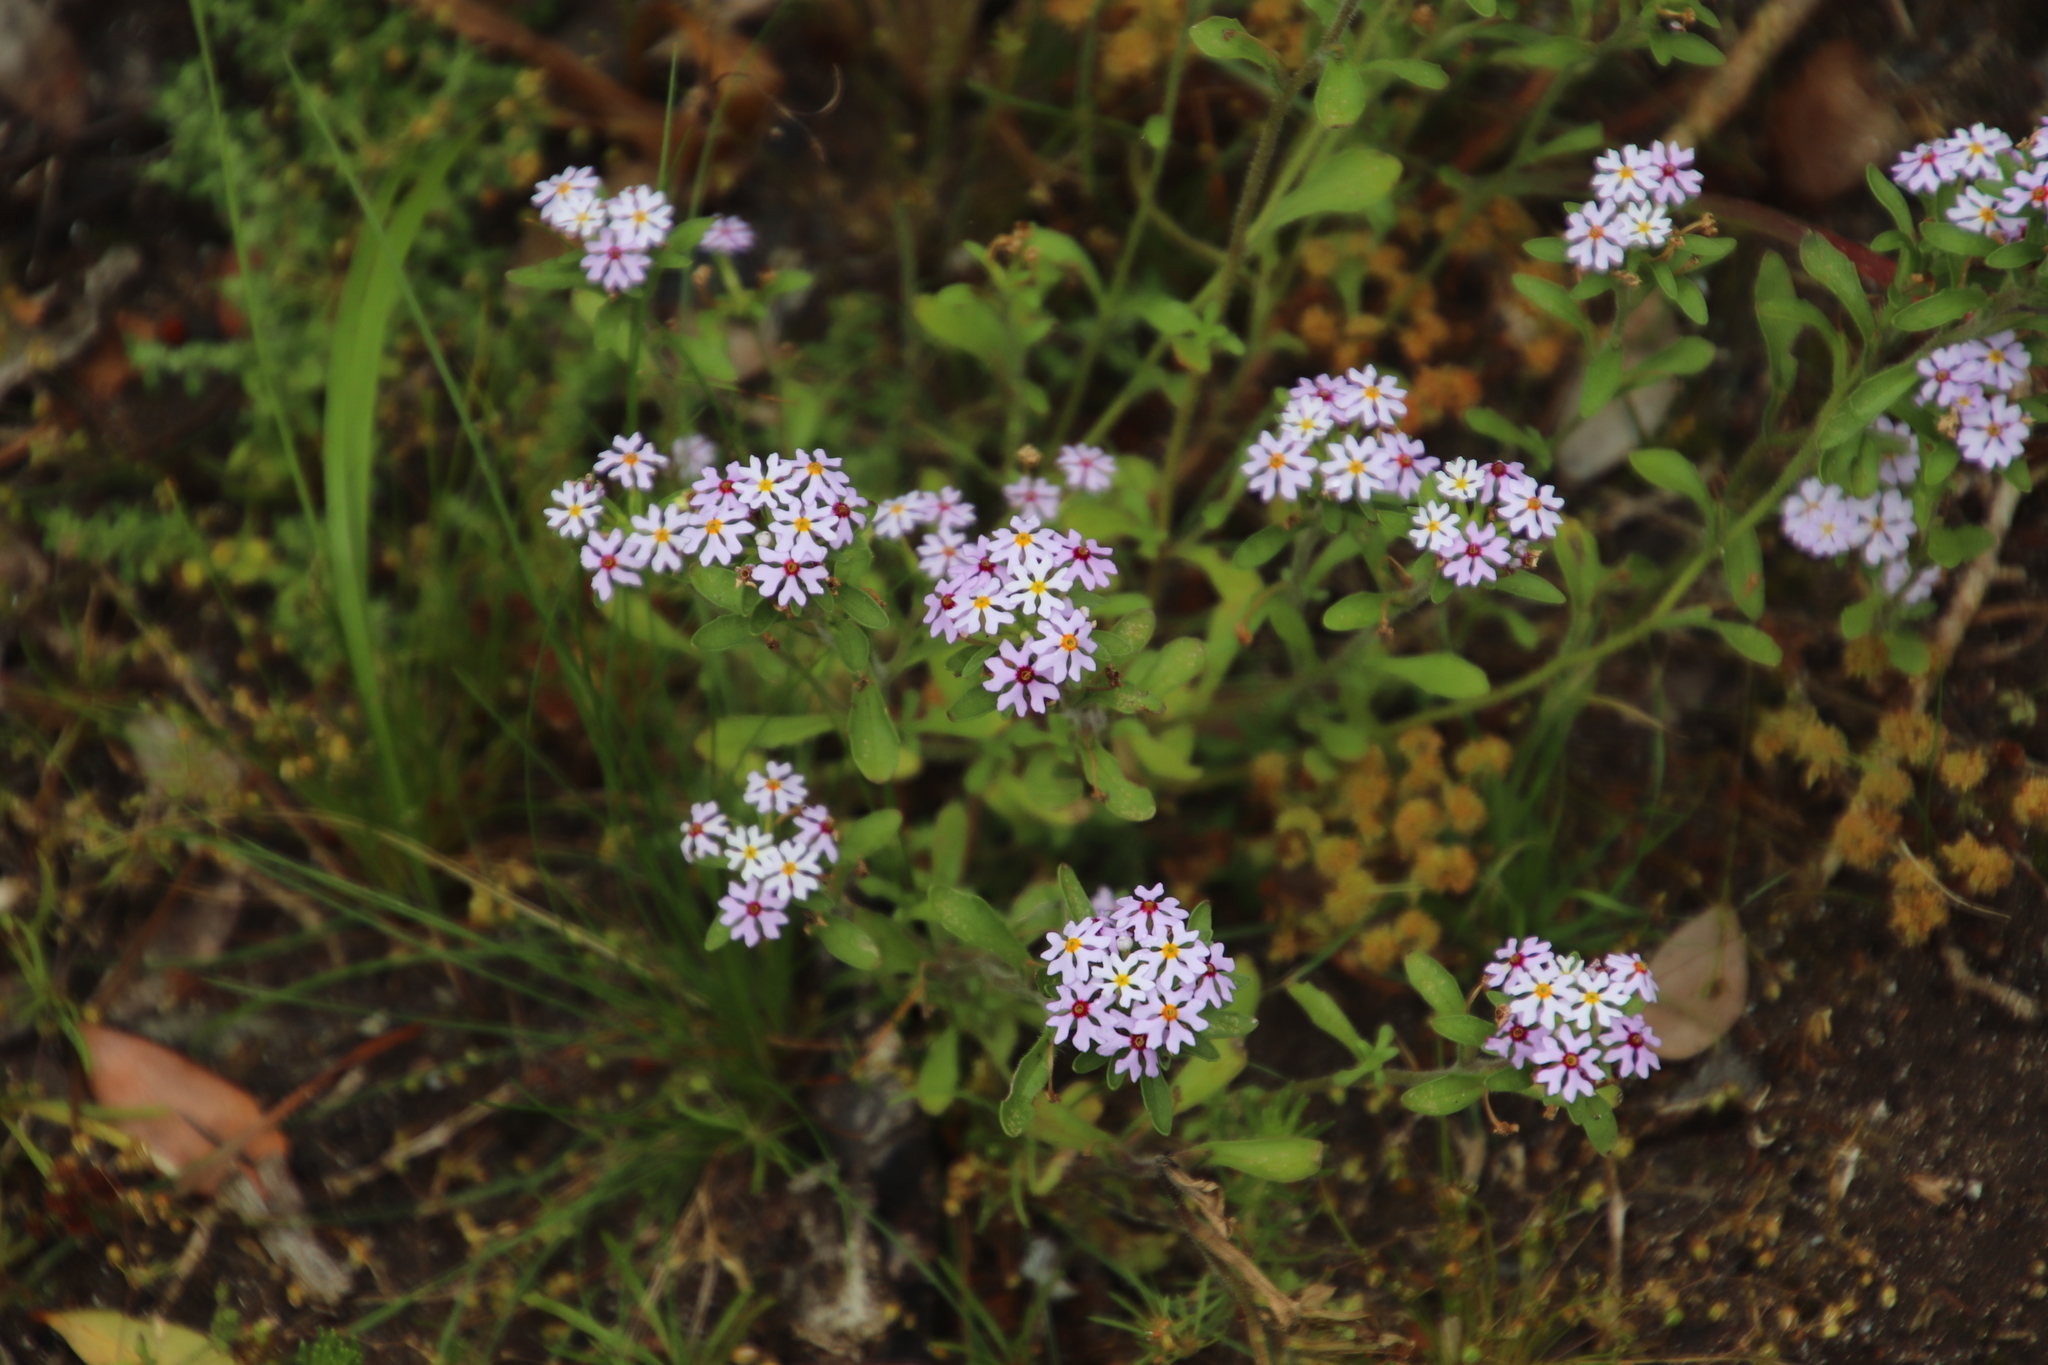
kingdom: Plantae
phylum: Tracheophyta
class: Magnoliopsida
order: Lamiales
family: Scrophulariaceae
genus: Zaluzianskya
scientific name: Zaluzianskya villosa
